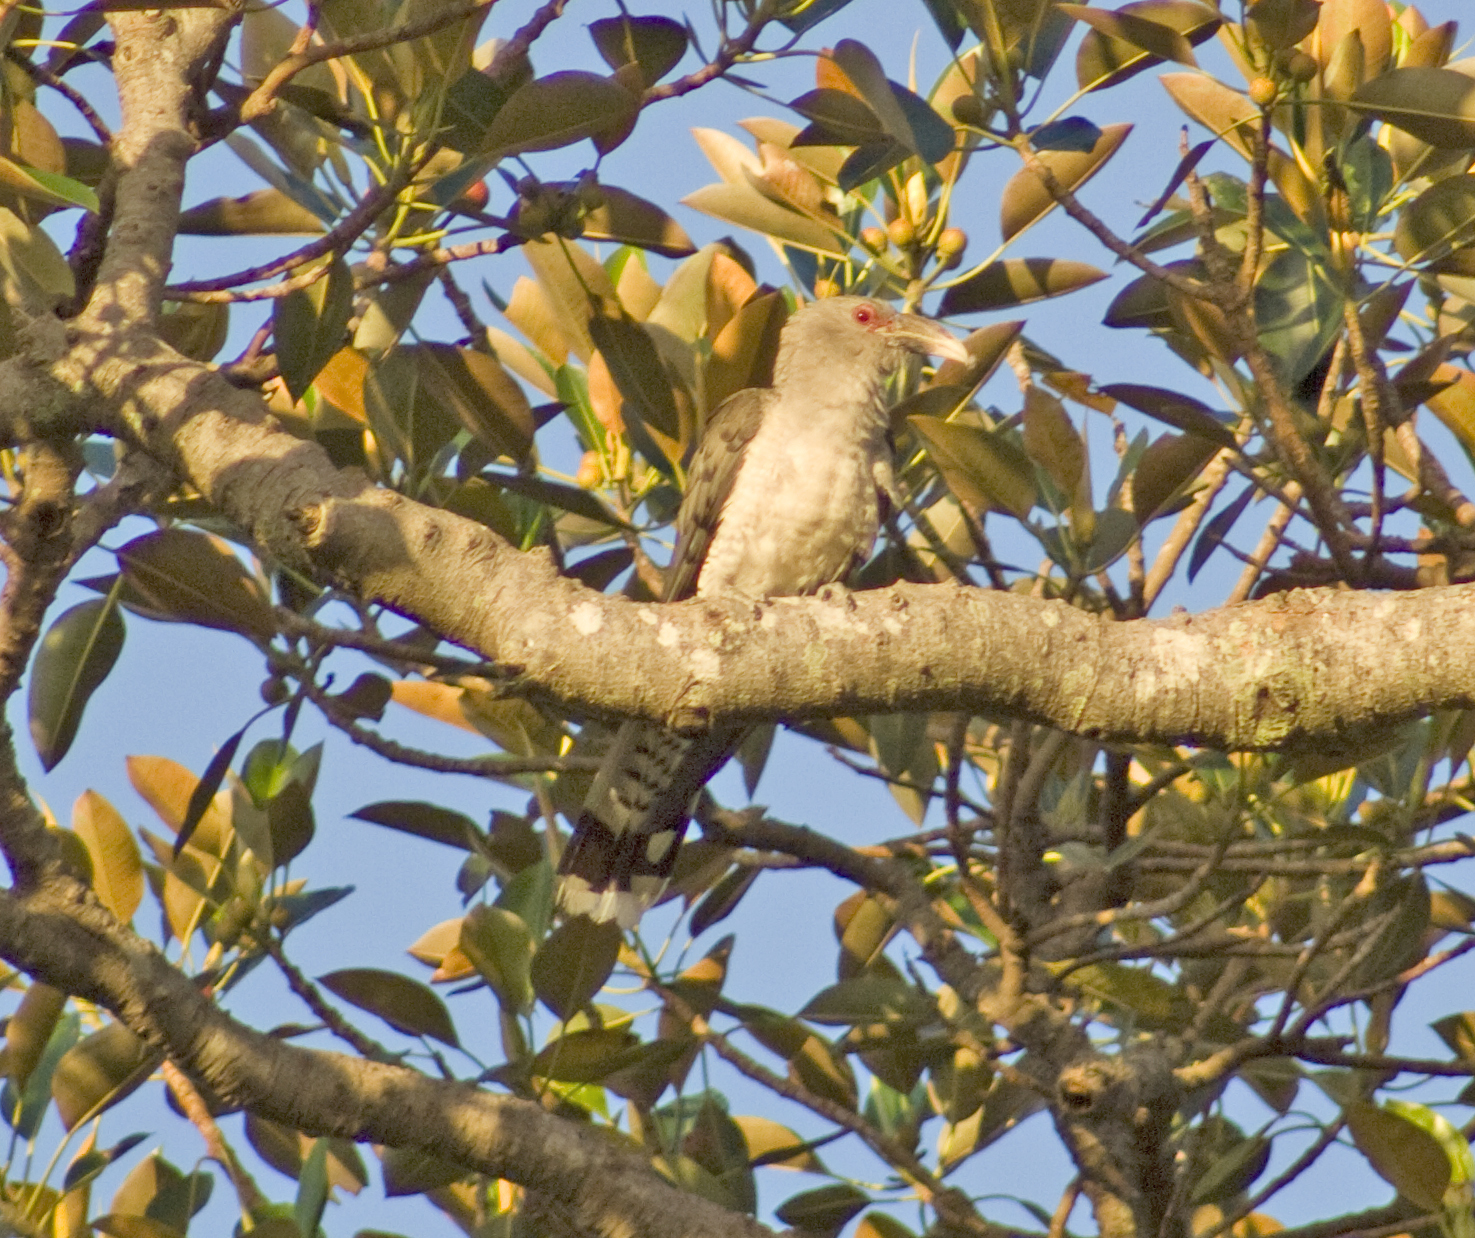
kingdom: Animalia
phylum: Chordata
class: Aves
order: Cuculiformes
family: Cuculidae
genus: Scythrops
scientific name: Scythrops novaehollandiae
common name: Channel-billed cuckoo
